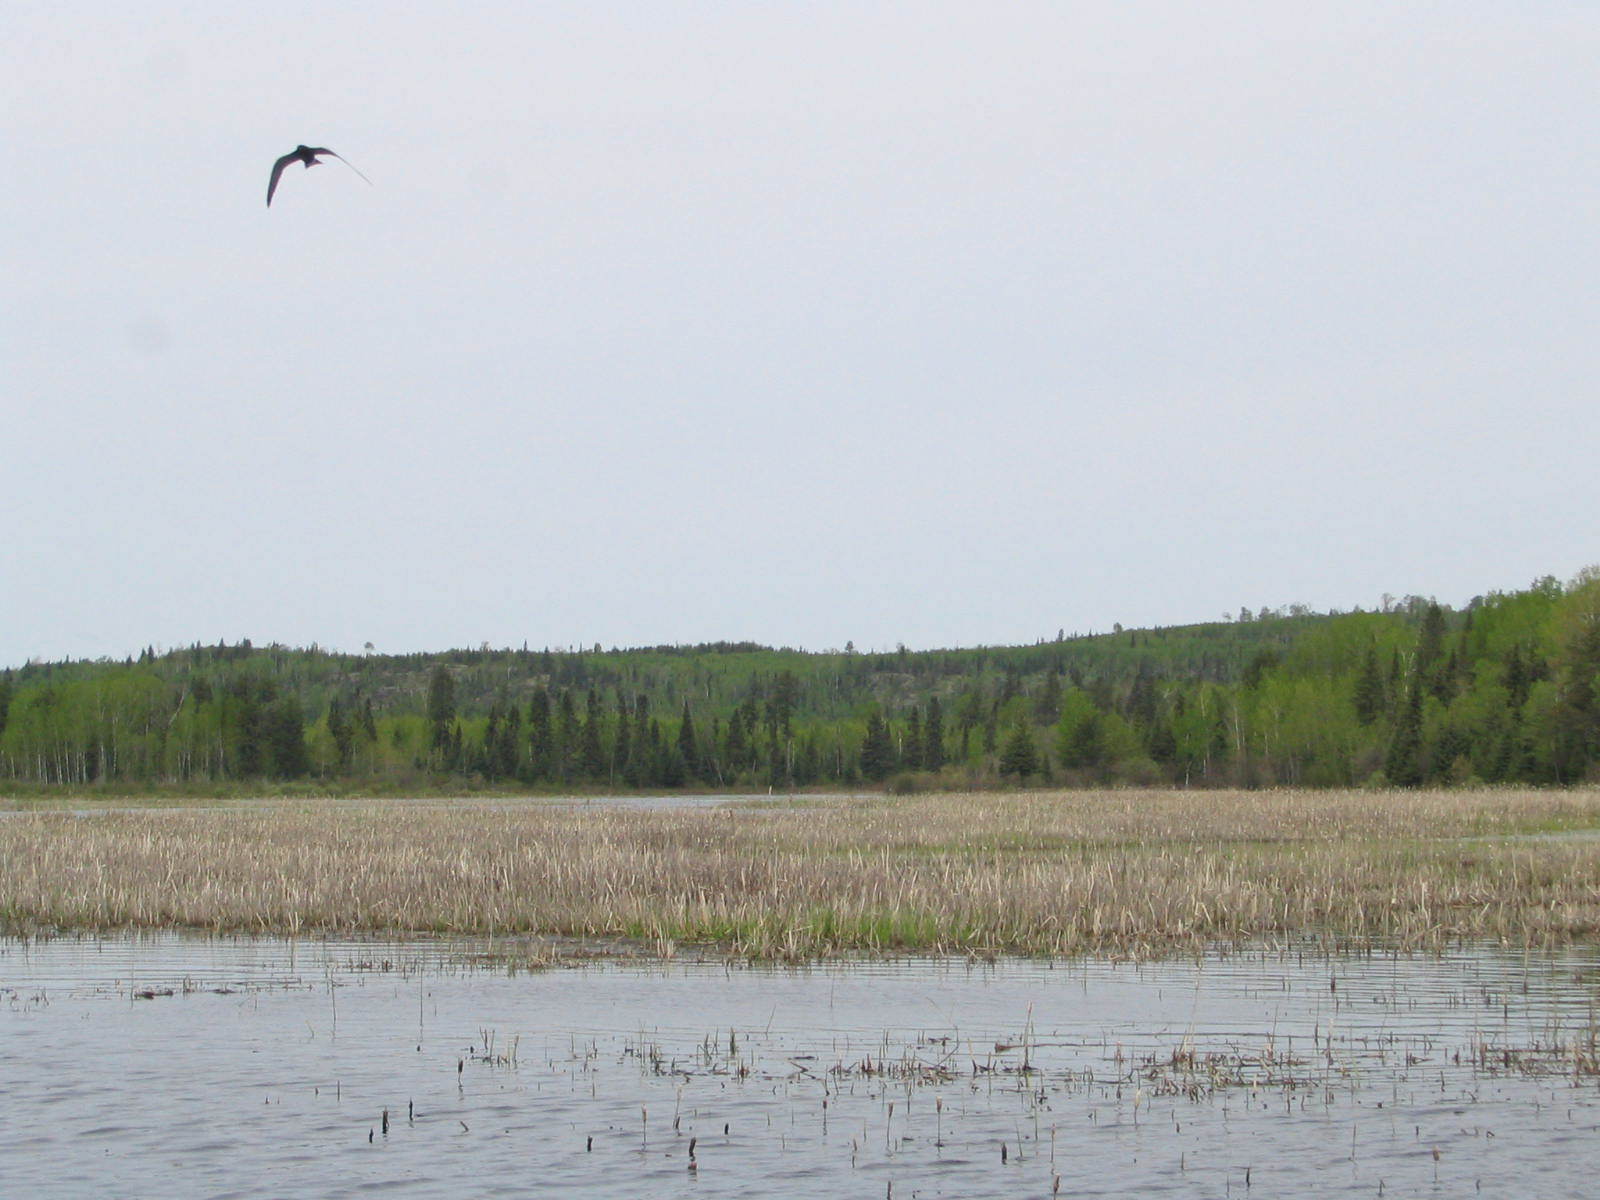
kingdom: Animalia
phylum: Chordata
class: Aves
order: Charadriiformes
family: Laridae
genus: Chlidonias
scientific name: Chlidonias niger
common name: Black tern
